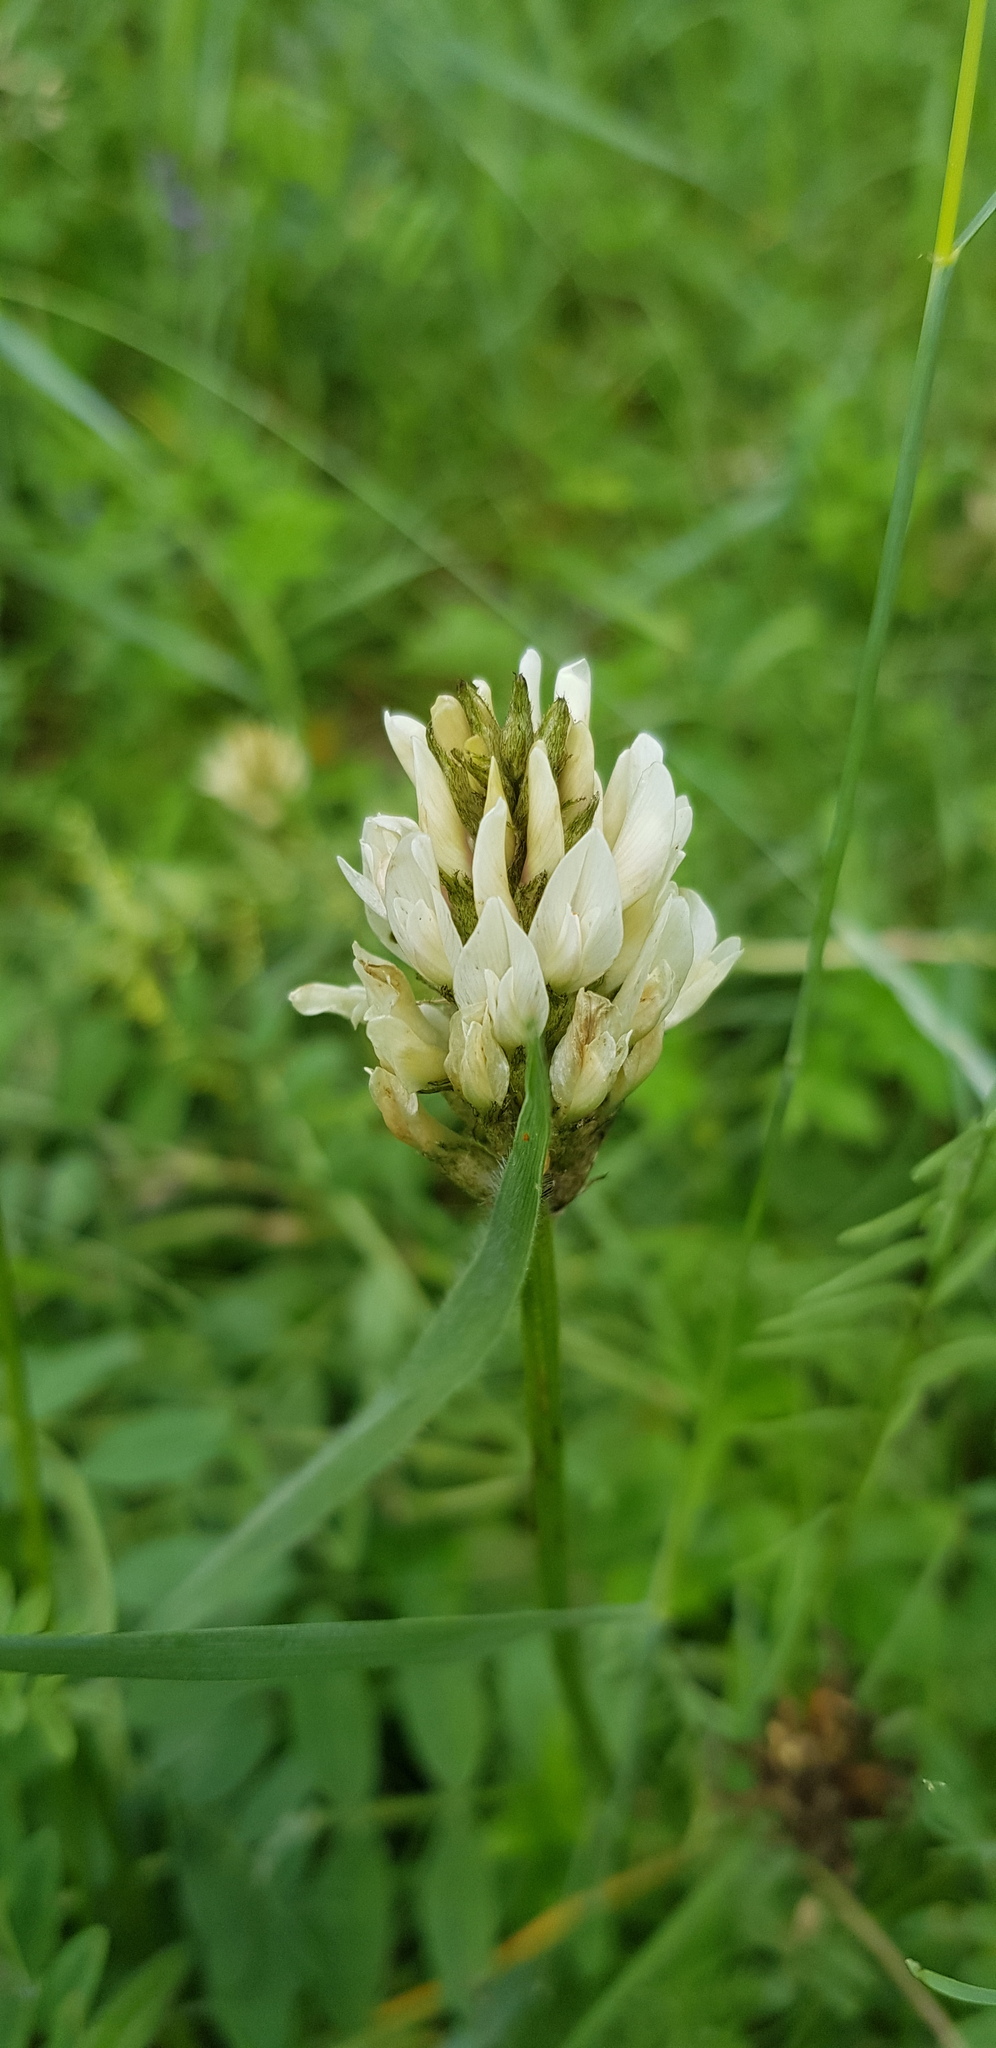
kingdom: Plantae
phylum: Tracheophyta
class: Magnoliopsida
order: Fabales
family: Fabaceae
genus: Astragalus
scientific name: Astragalus laxmannii
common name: Laxmann's milk-vetch
